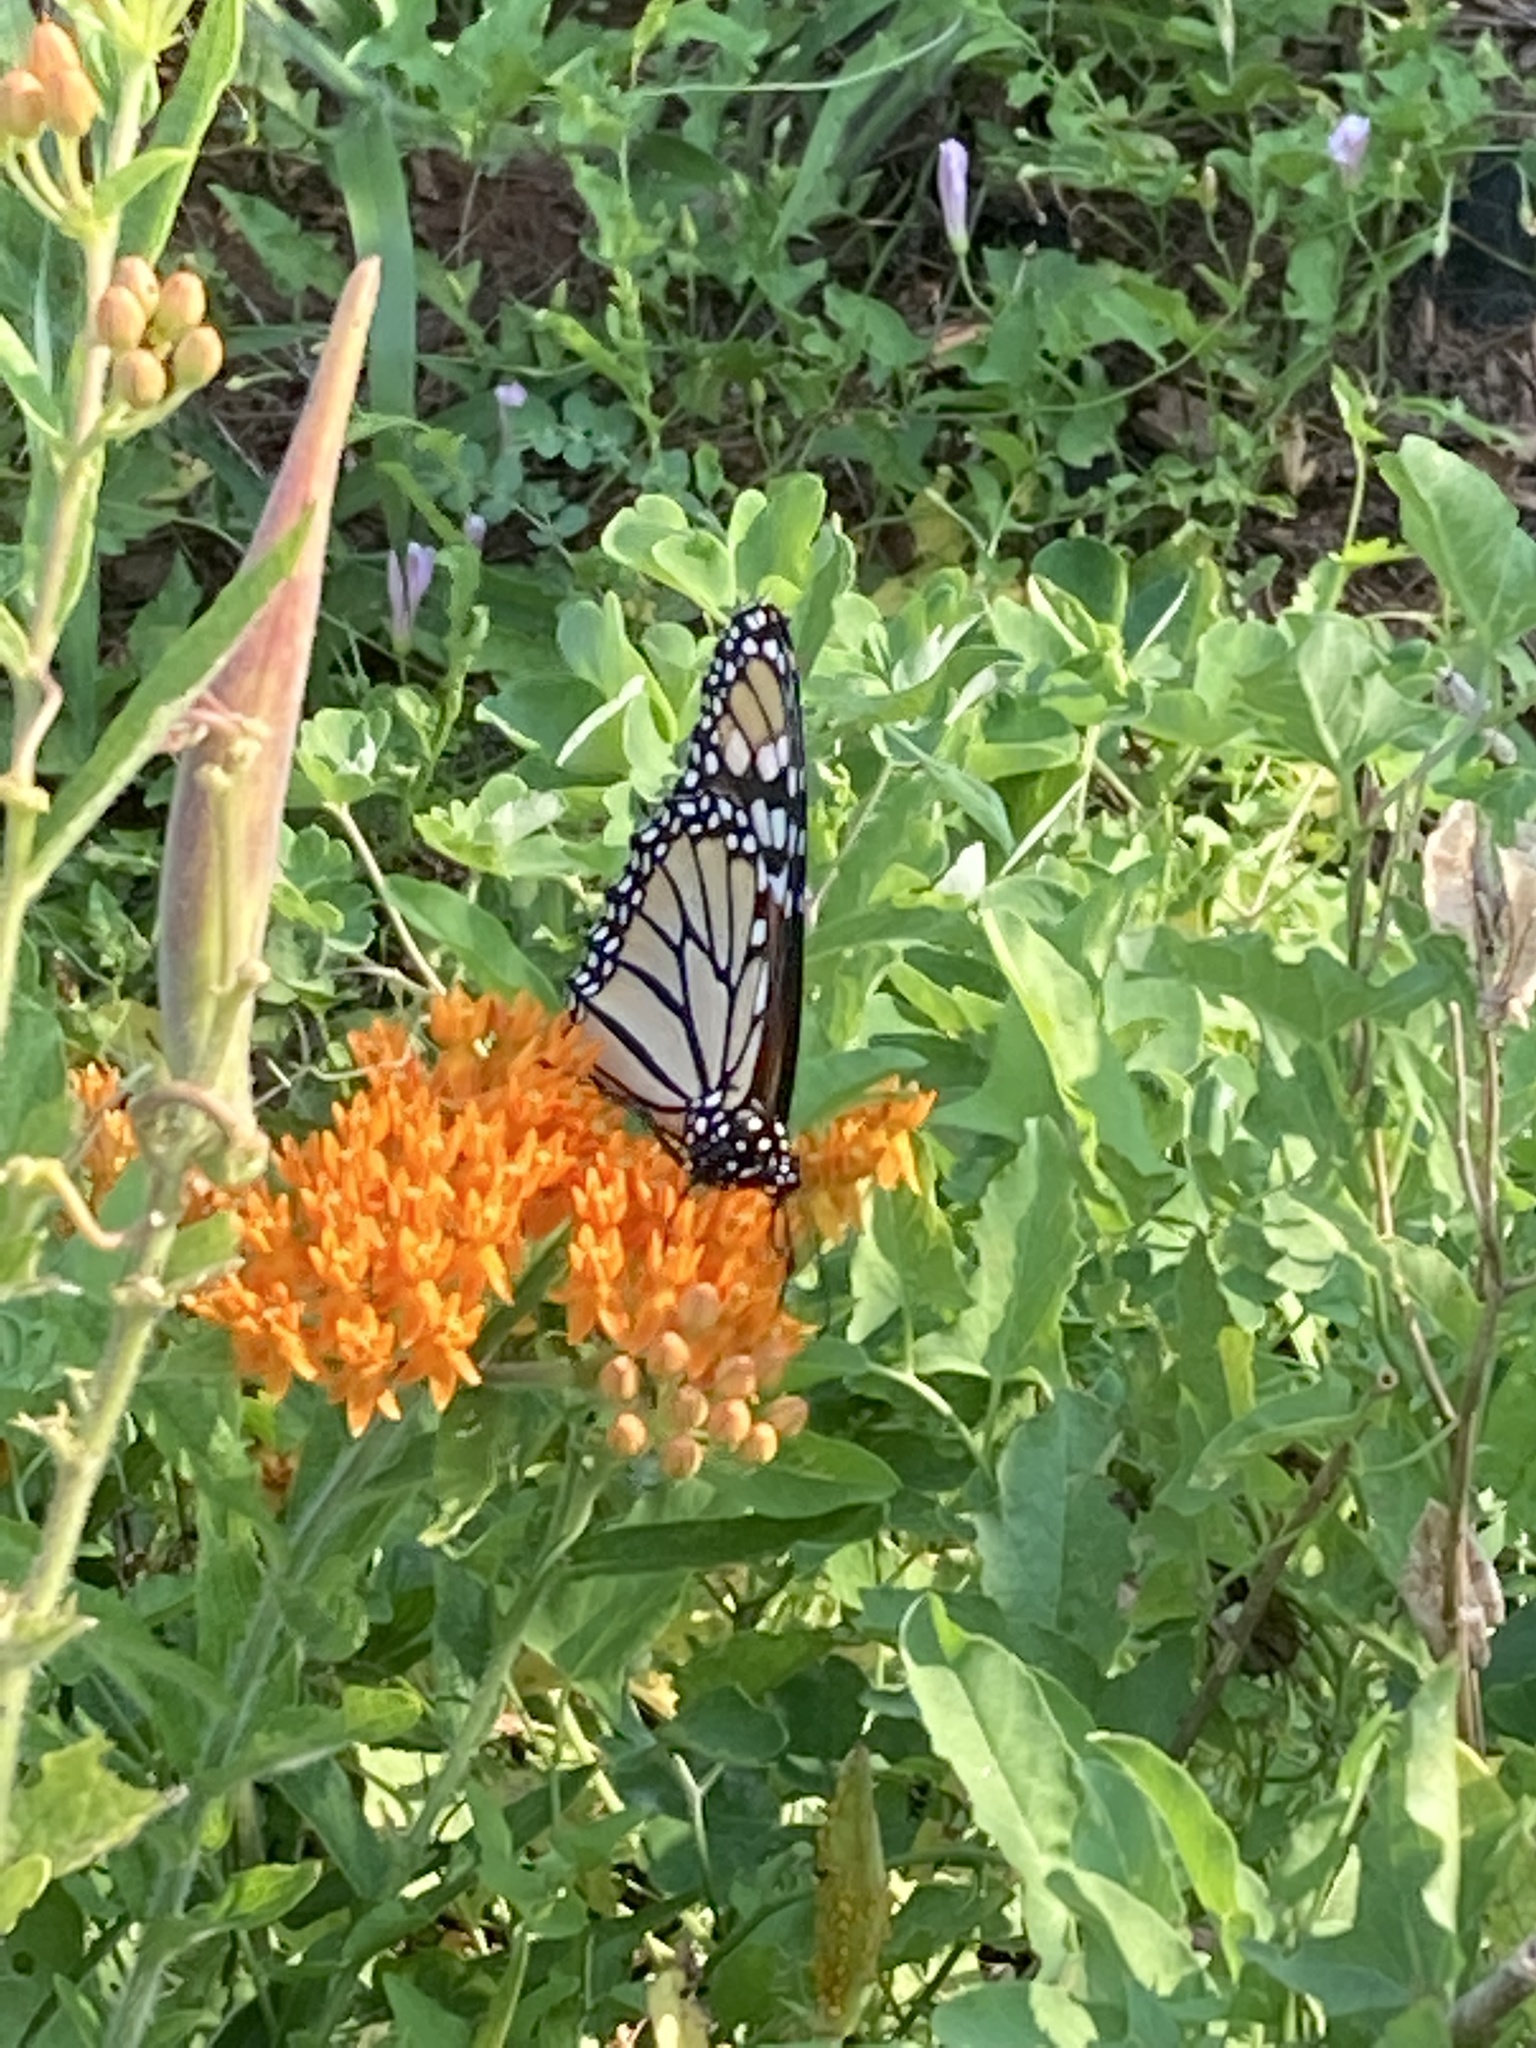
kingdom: Plantae
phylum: Tracheophyta
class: Magnoliopsida
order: Gentianales
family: Apocynaceae
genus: Asclepias
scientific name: Asclepias tuberosa
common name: Butterfly milkweed
